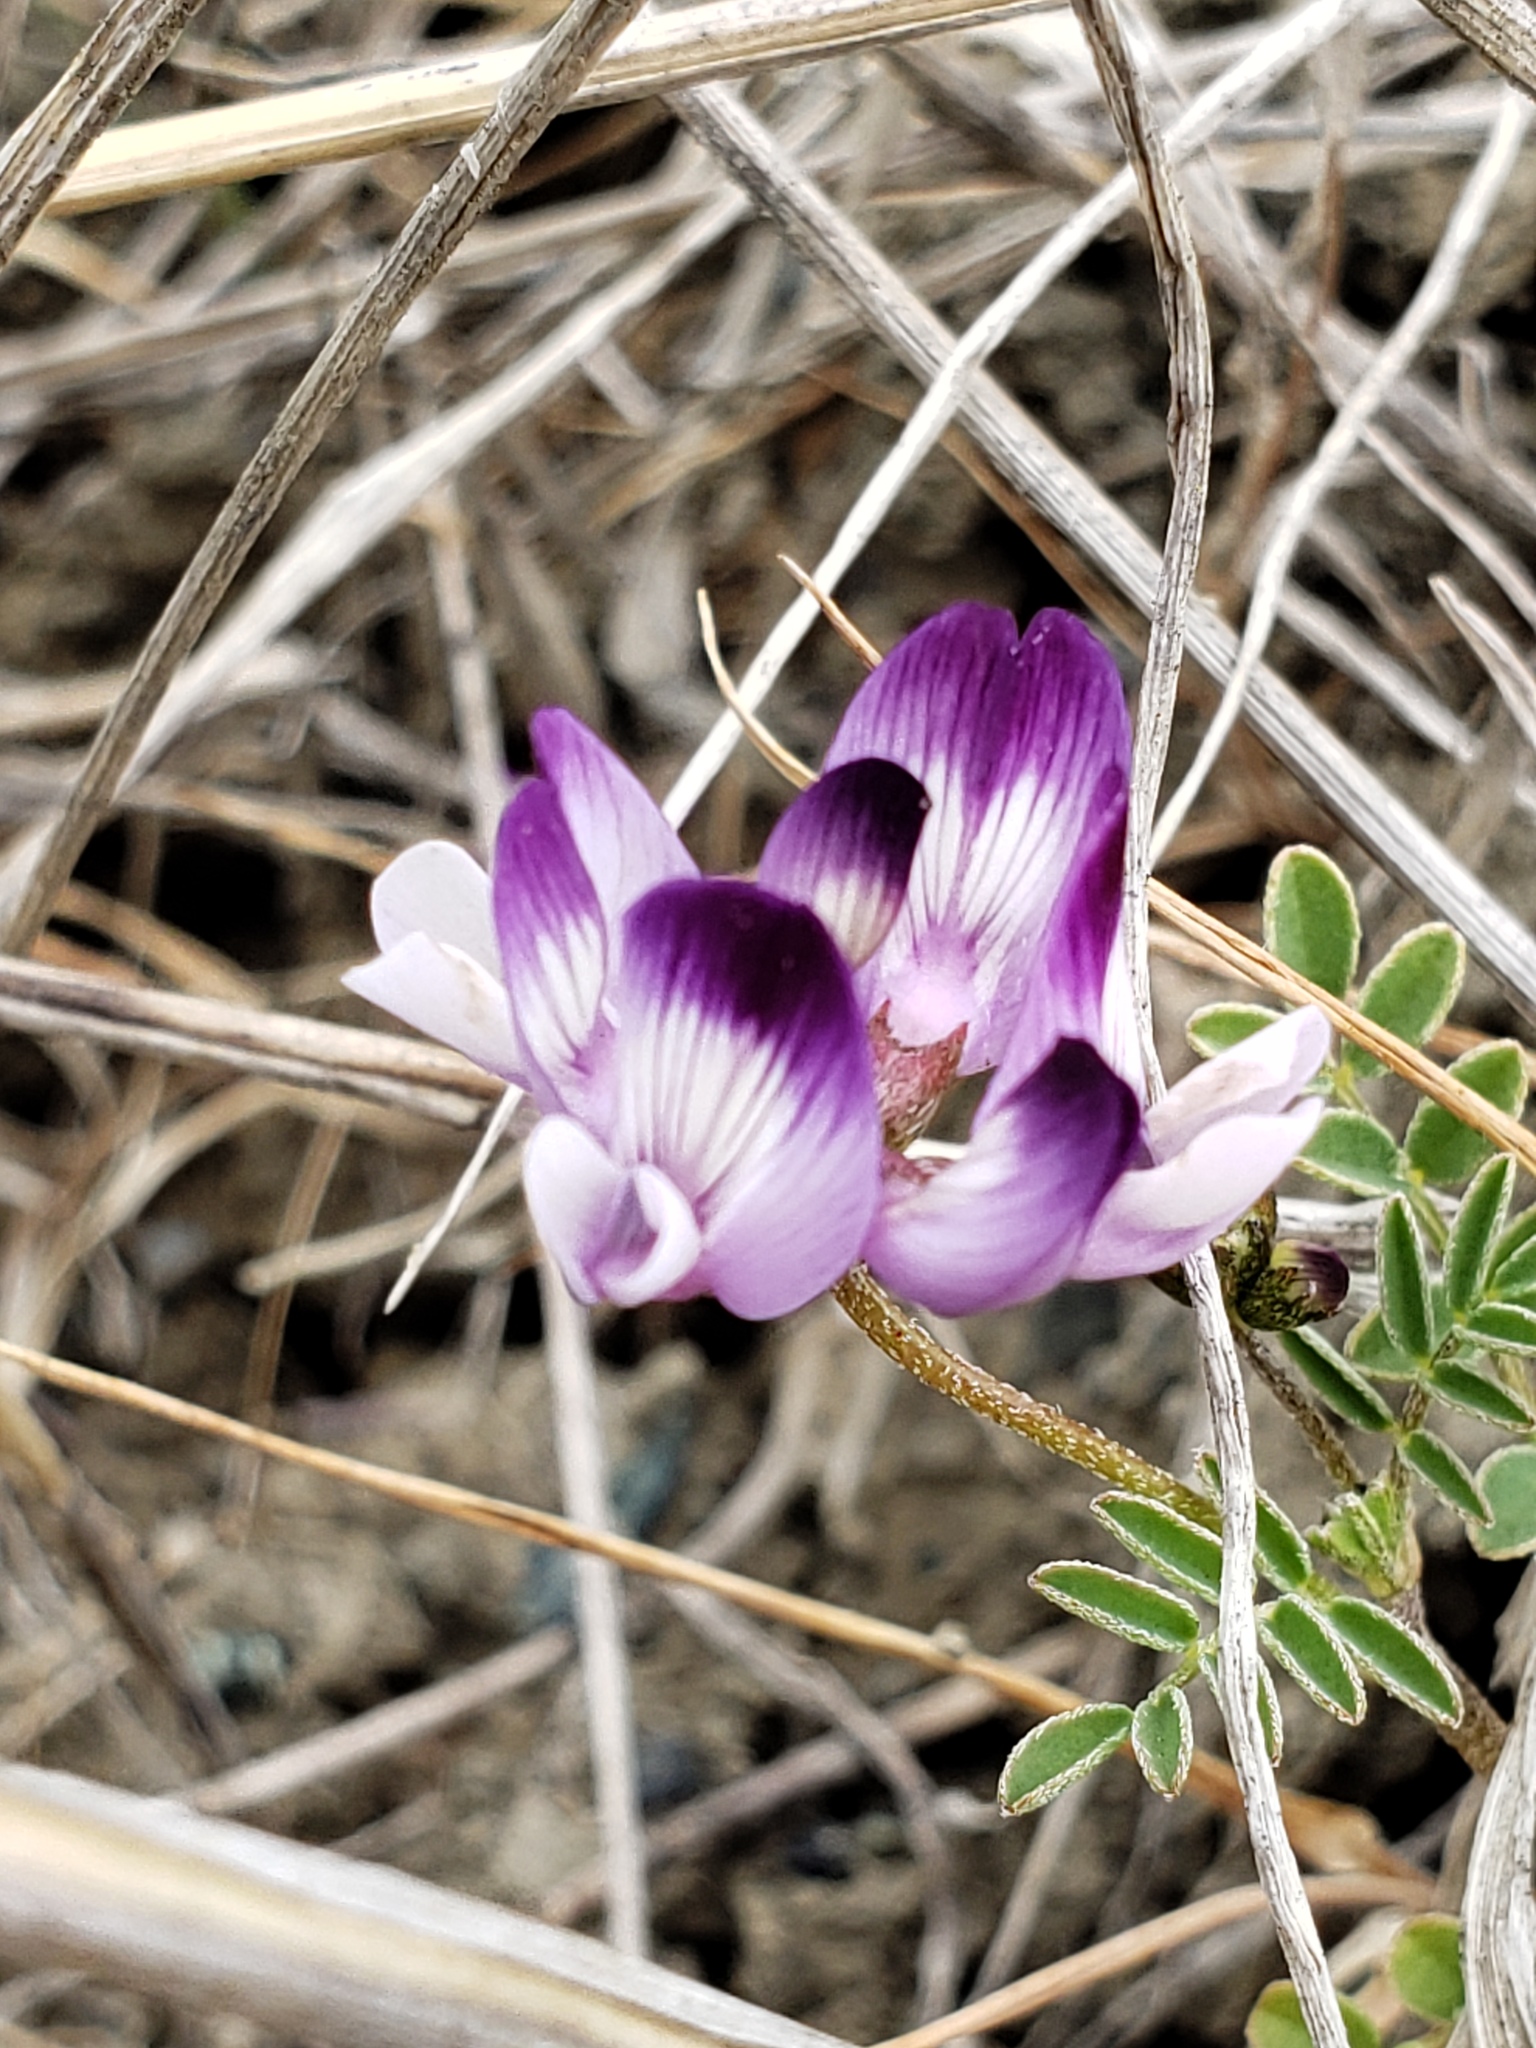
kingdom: Plantae
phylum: Tracheophyta
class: Magnoliopsida
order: Fabales
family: Fabaceae
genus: Astragalus
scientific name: Astragalus rattanii
